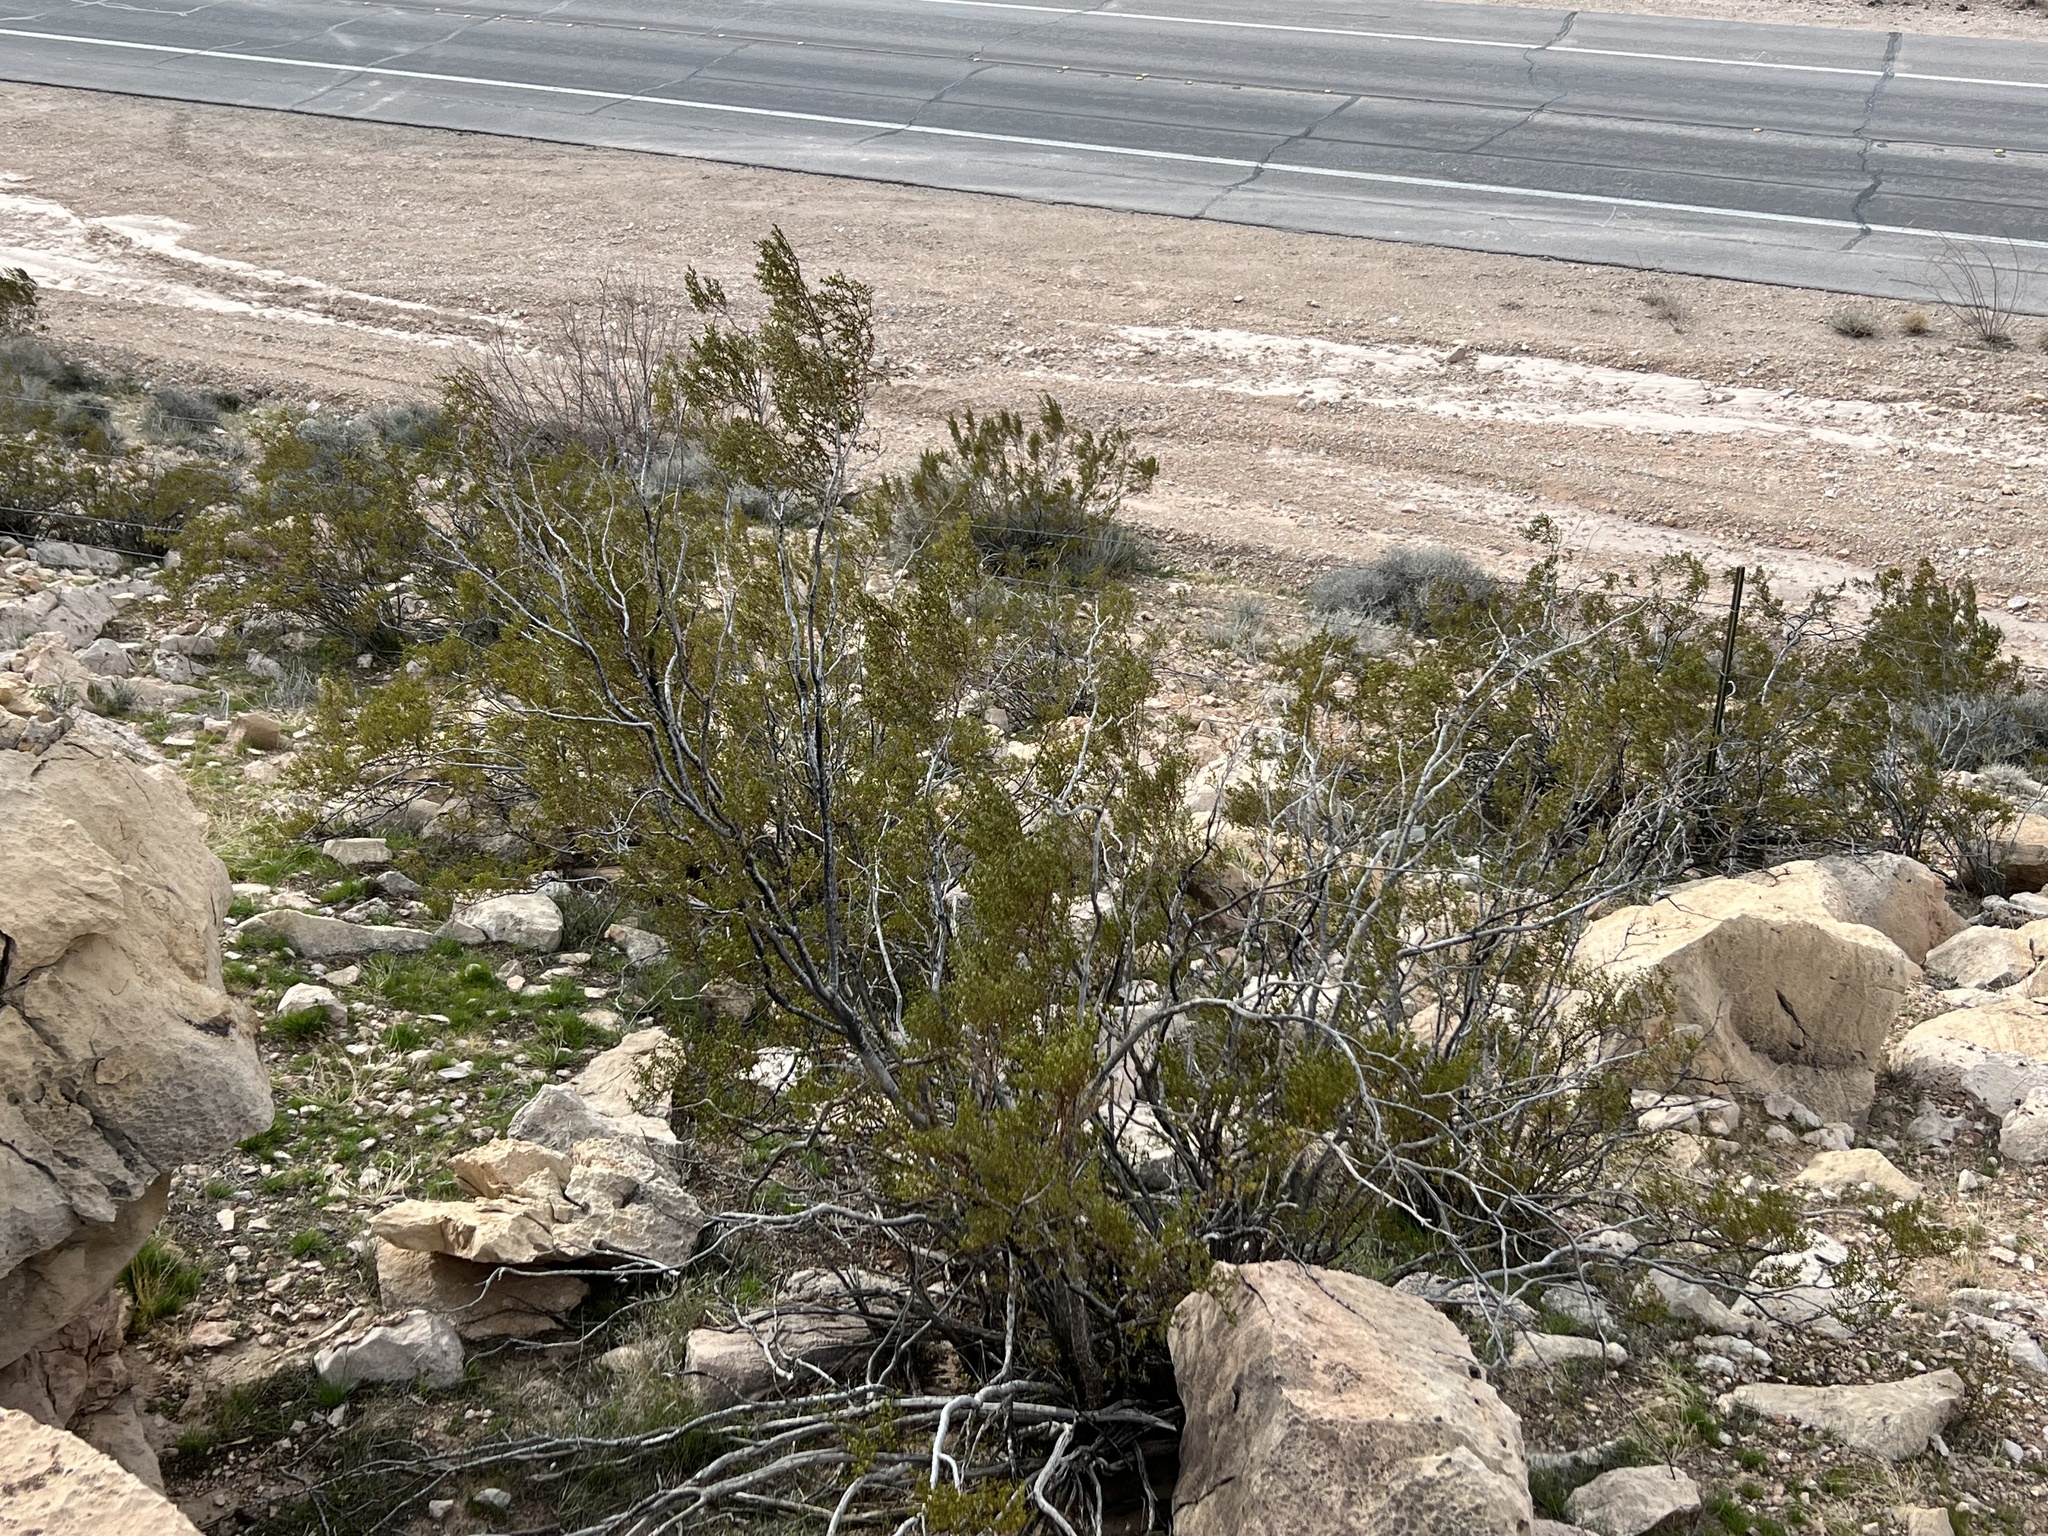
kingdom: Plantae
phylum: Tracheophyta
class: Magnoliopsida
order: Zygophyllales
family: Zygophyllaceae
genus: Larrea
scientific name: Larrea tridentata
